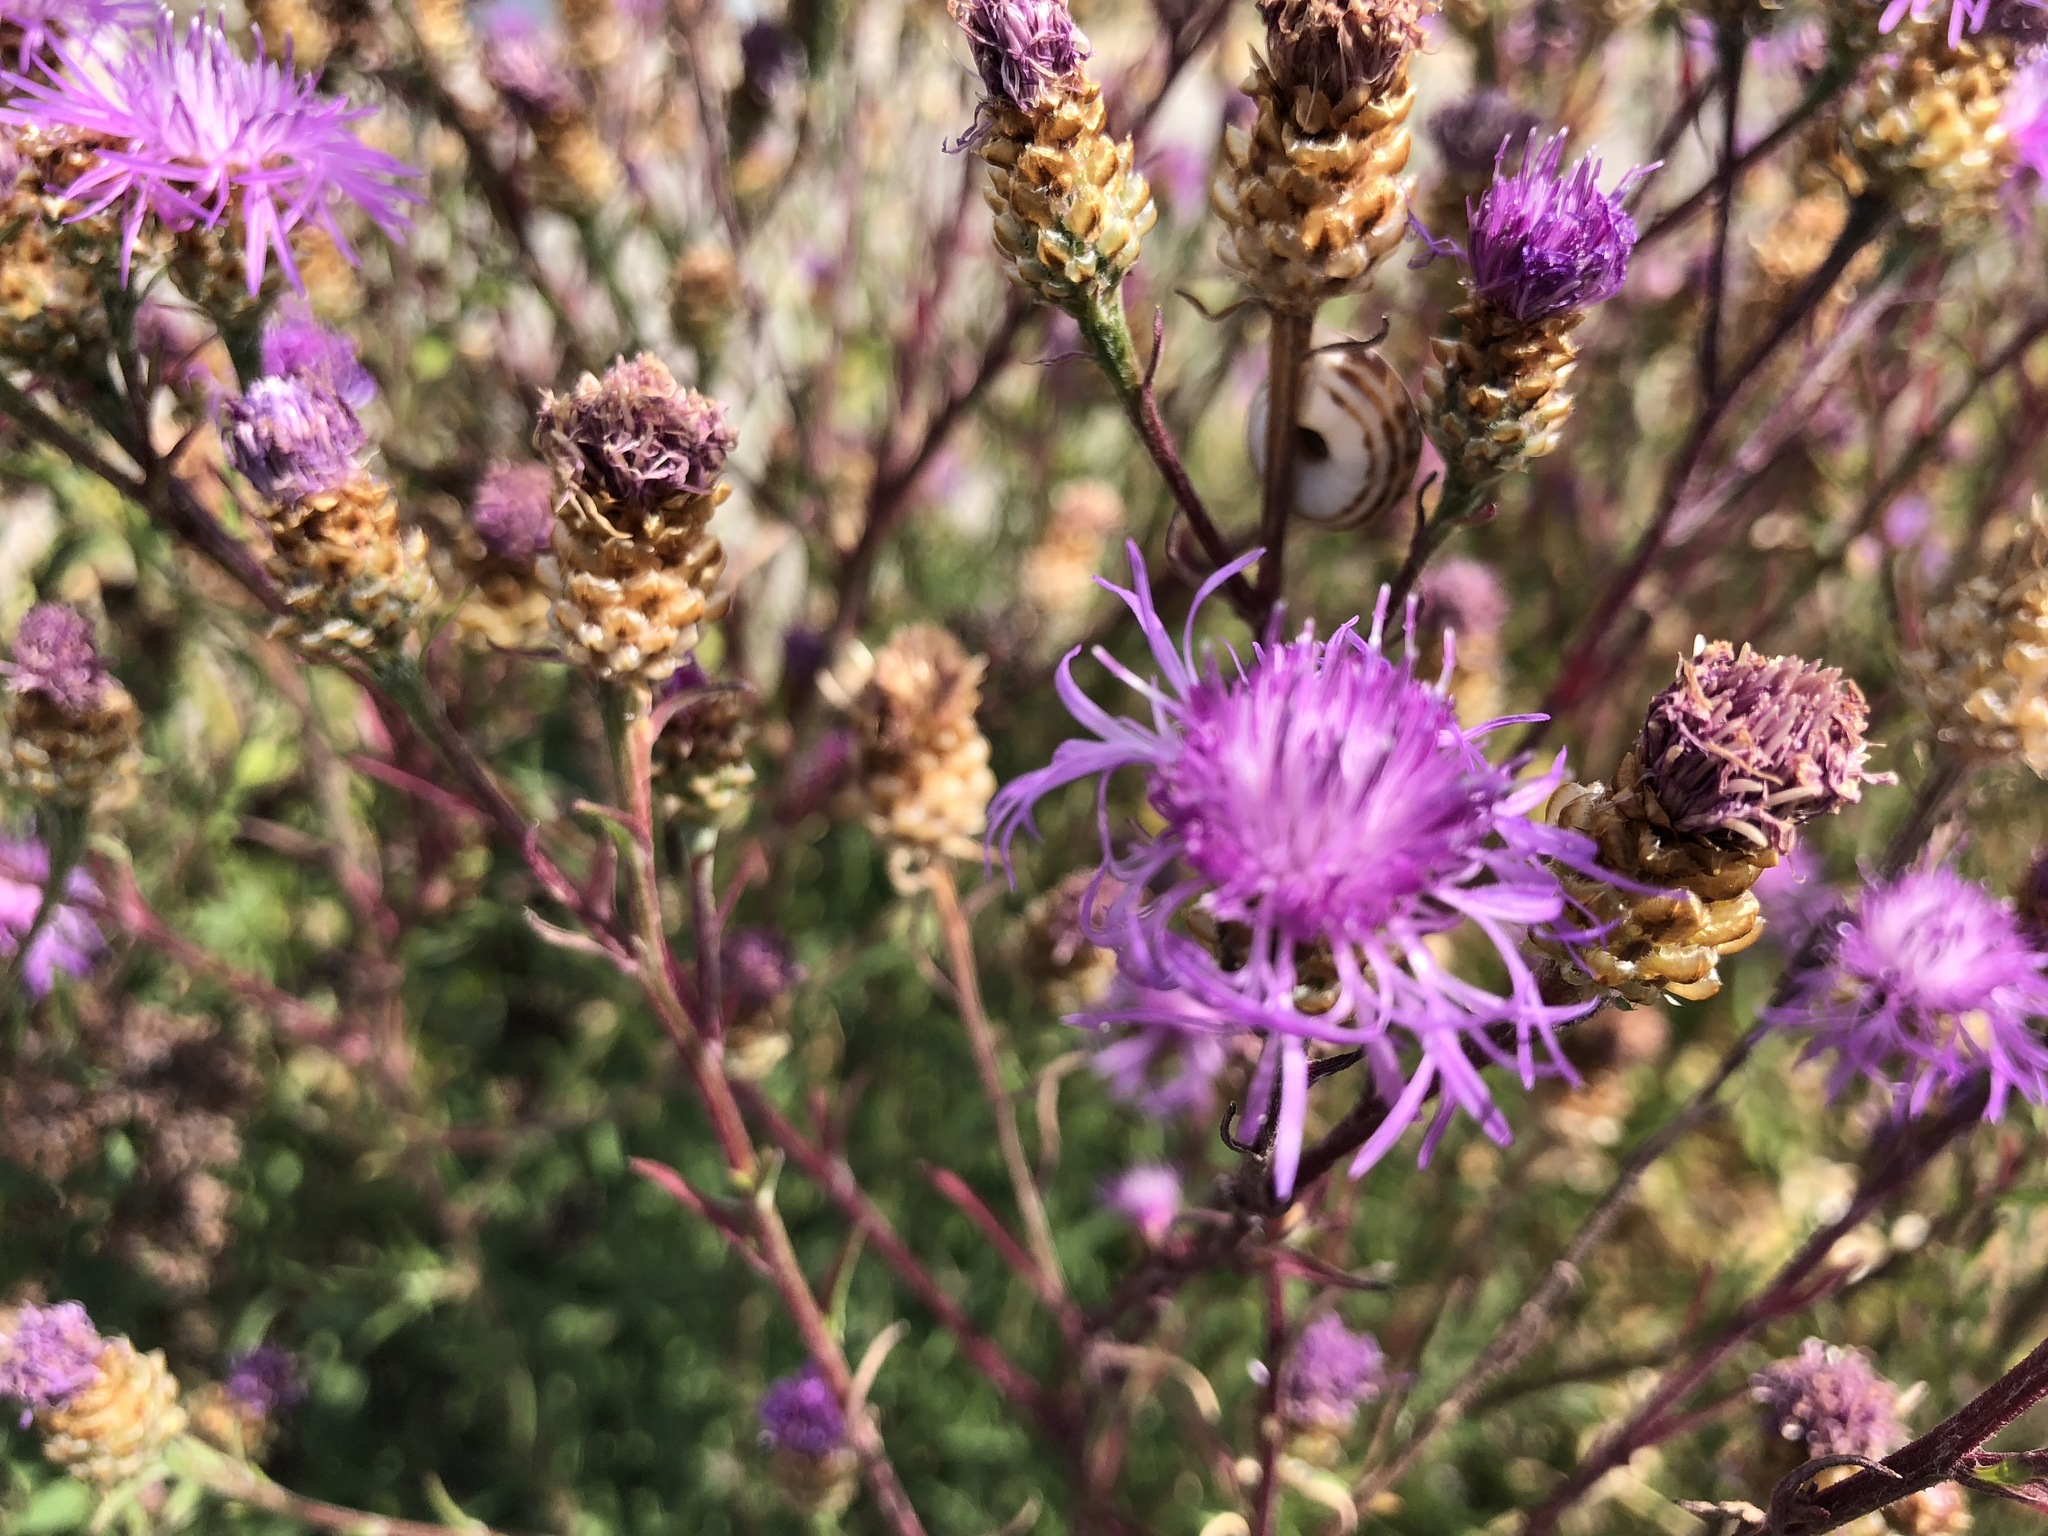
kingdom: Plantae
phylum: Tracheophyta
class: Magnoliopsida
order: Asterales
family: Asteraceae
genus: Centaurea
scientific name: Centaurea jacea
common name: Brown knapweed
